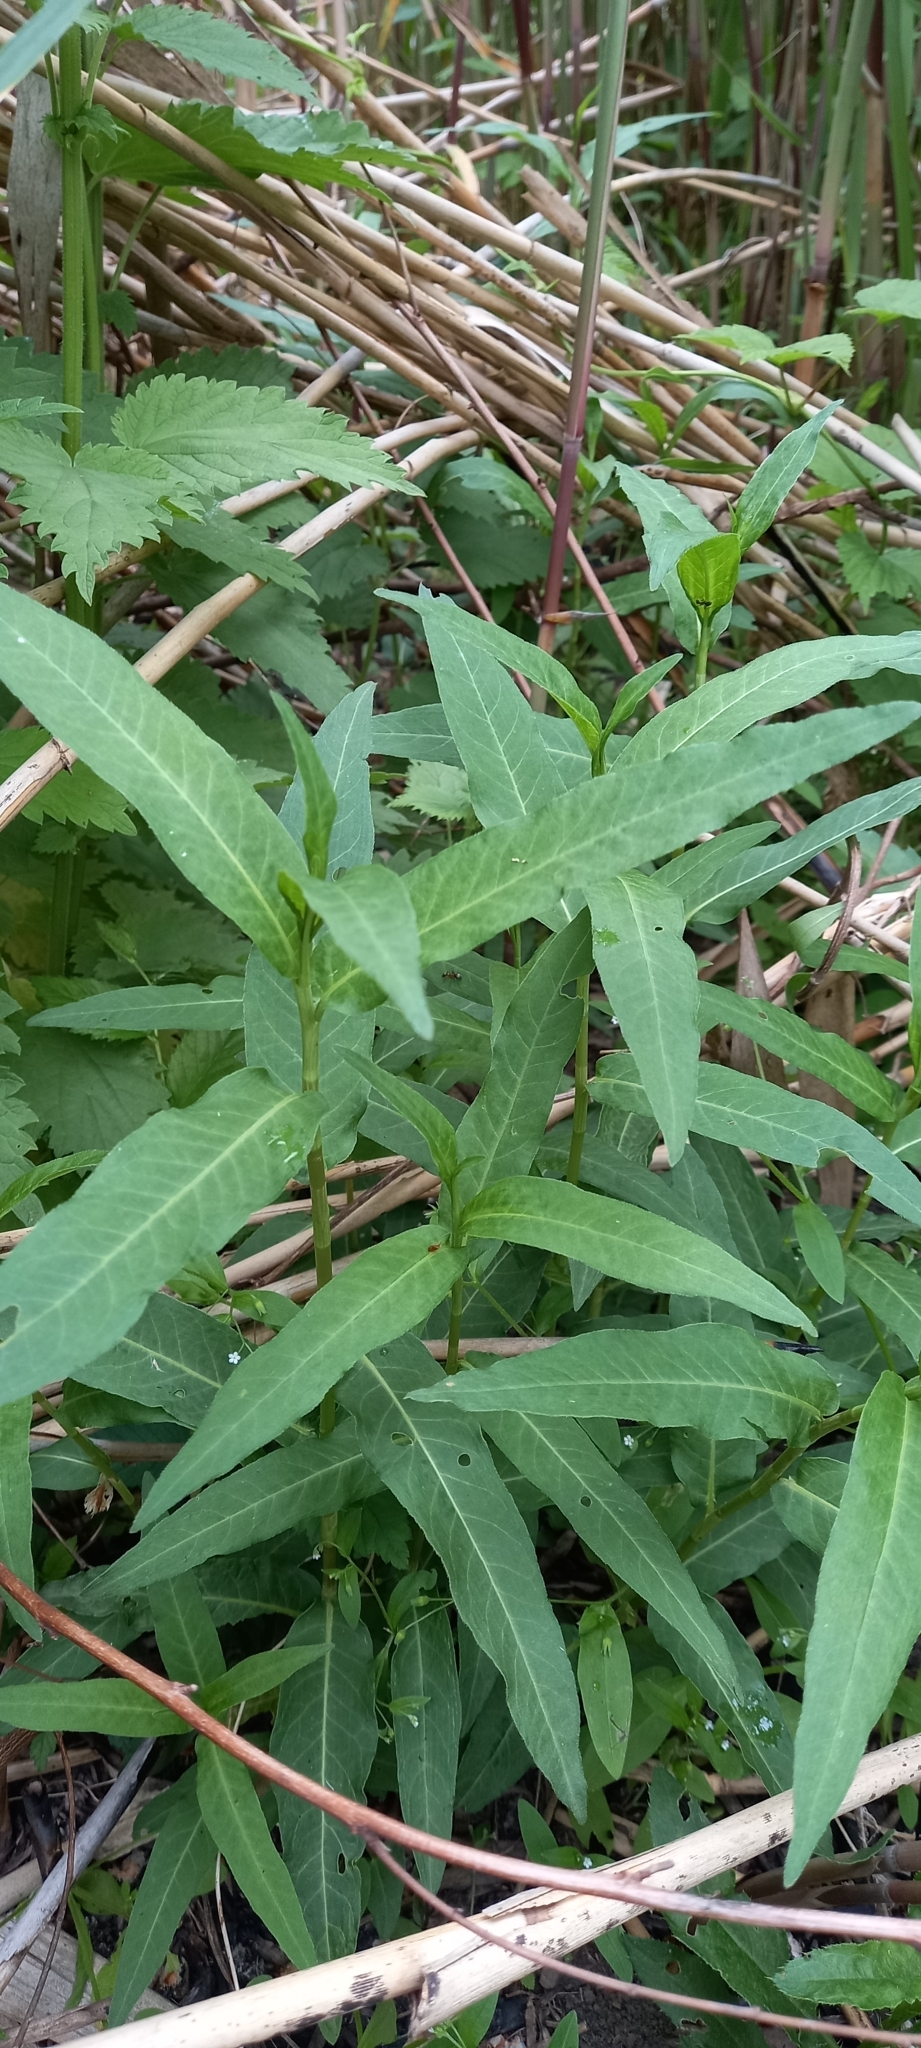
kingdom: Plantae
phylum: Tracheophyta
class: Magnoliopsida
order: Caryophyllales
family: Polygonaceae
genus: Persicaria
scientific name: Persicaria amphibia
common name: Amphibious bistort
